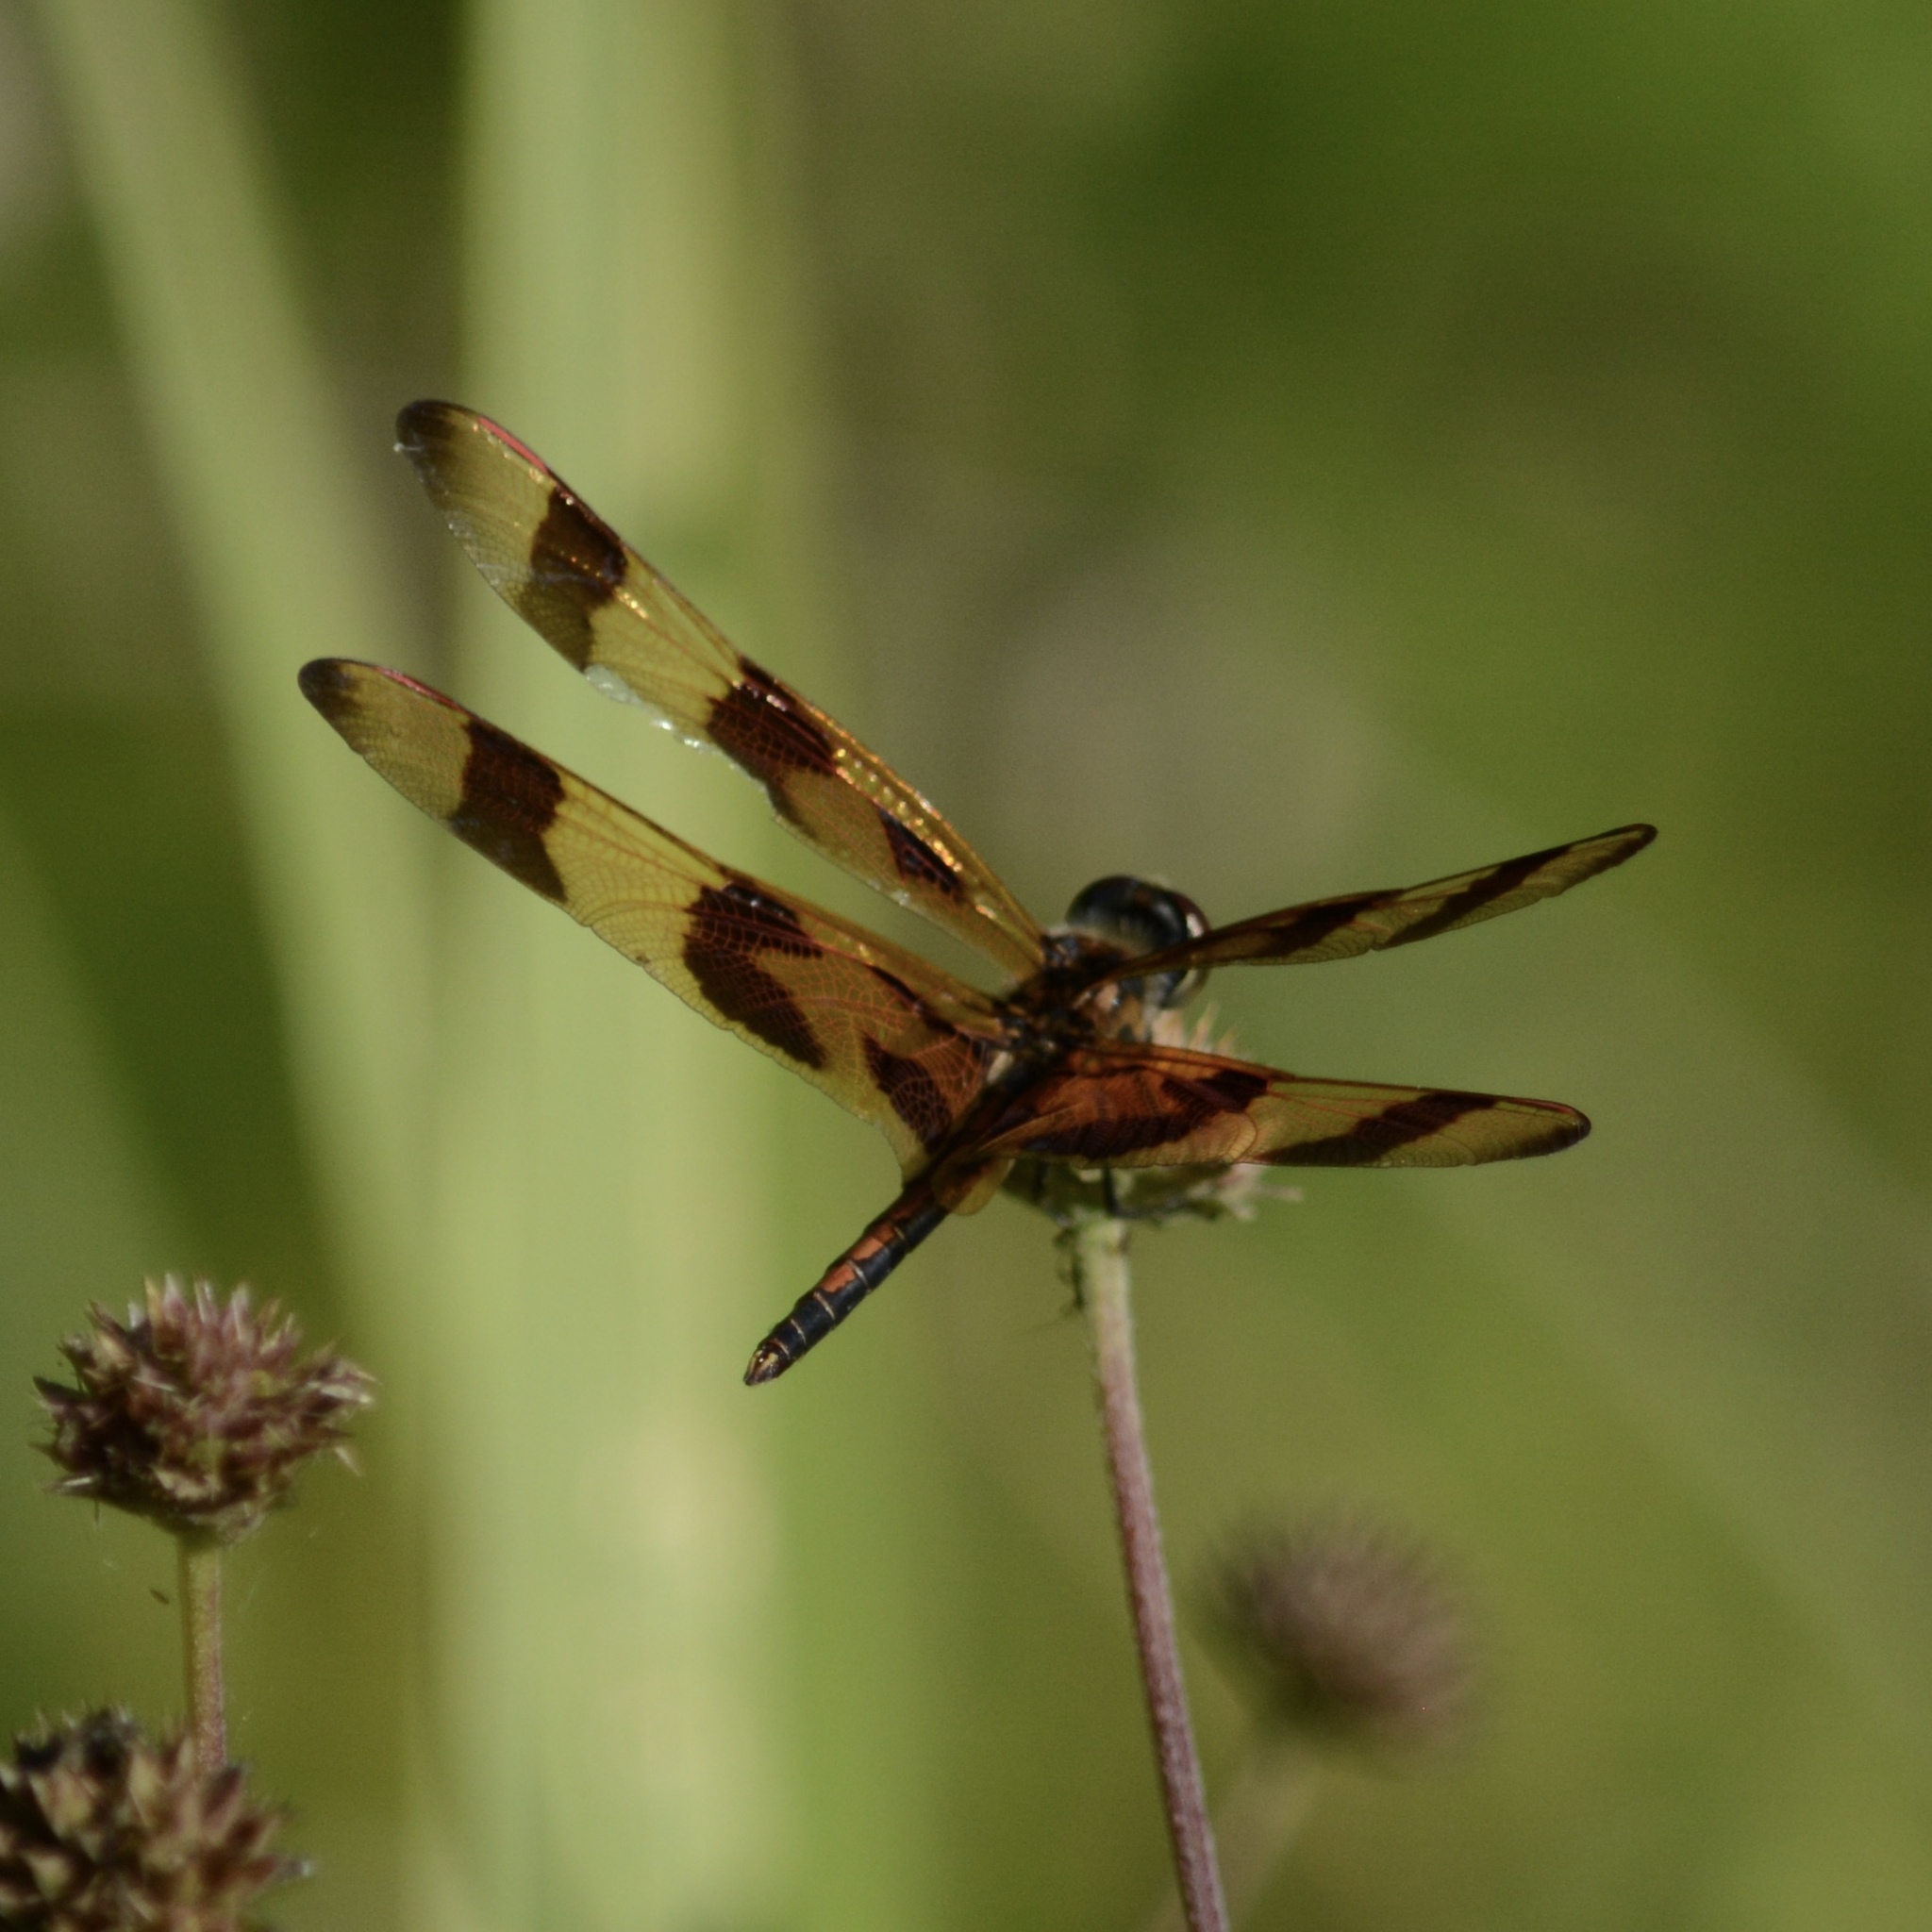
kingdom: Animalia
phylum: Arthropoda
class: Insecta
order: Odonata
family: Libellulidae
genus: Celithemis
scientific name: Celithemis eponina
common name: Halloween pennant
